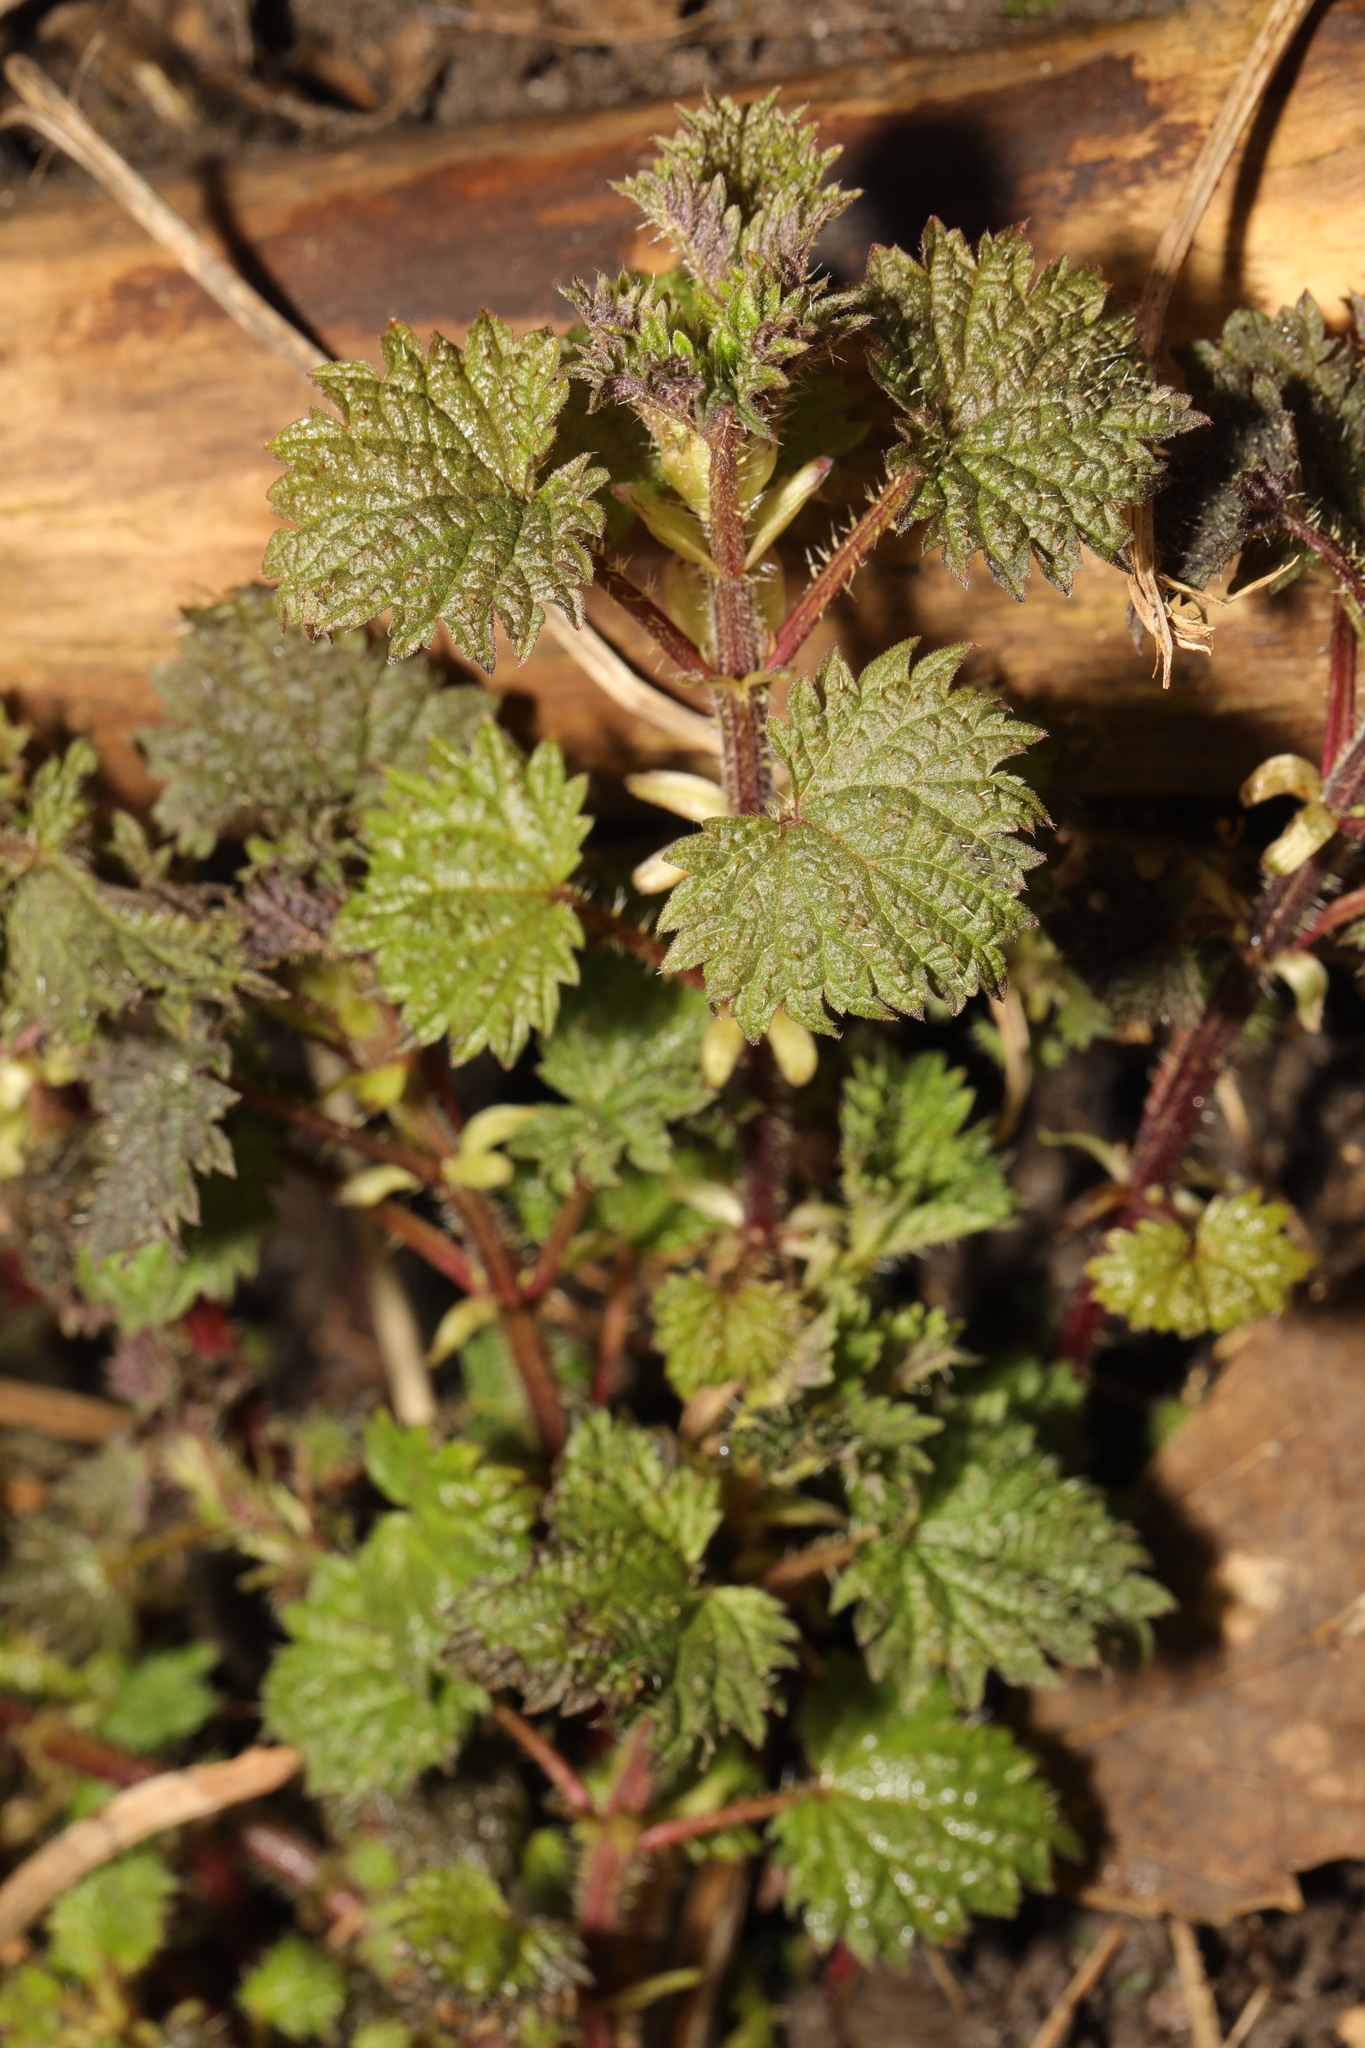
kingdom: Plantae
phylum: Tracheophyta
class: Magnoliopsida
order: Rosales
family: Urticaceae
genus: Urtica
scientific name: Urtica dioica
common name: Common nettle
